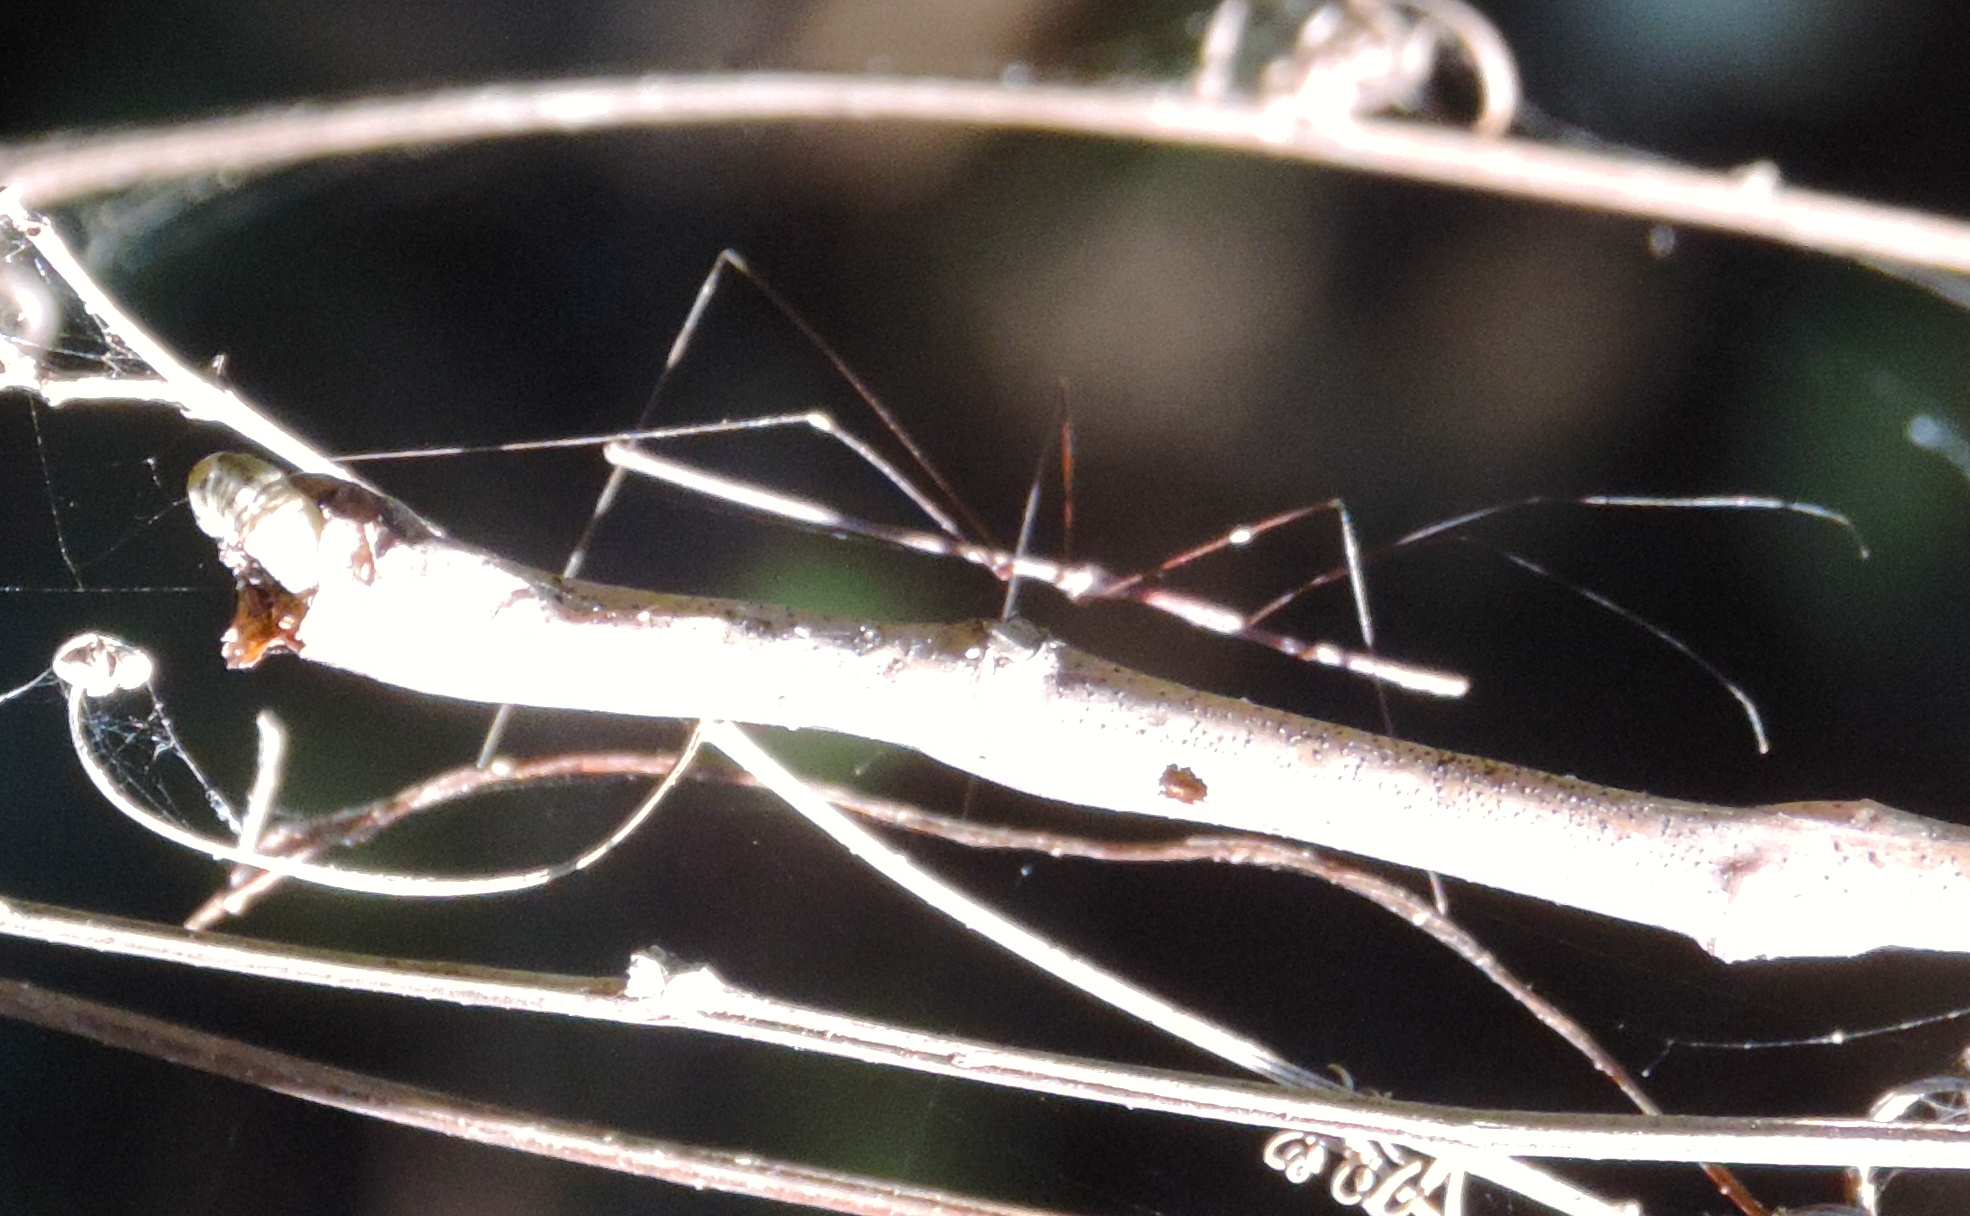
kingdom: Animalia
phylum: Arthropoda
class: Insecta
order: Hemiptera
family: Reduviidae
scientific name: Reduviidae
